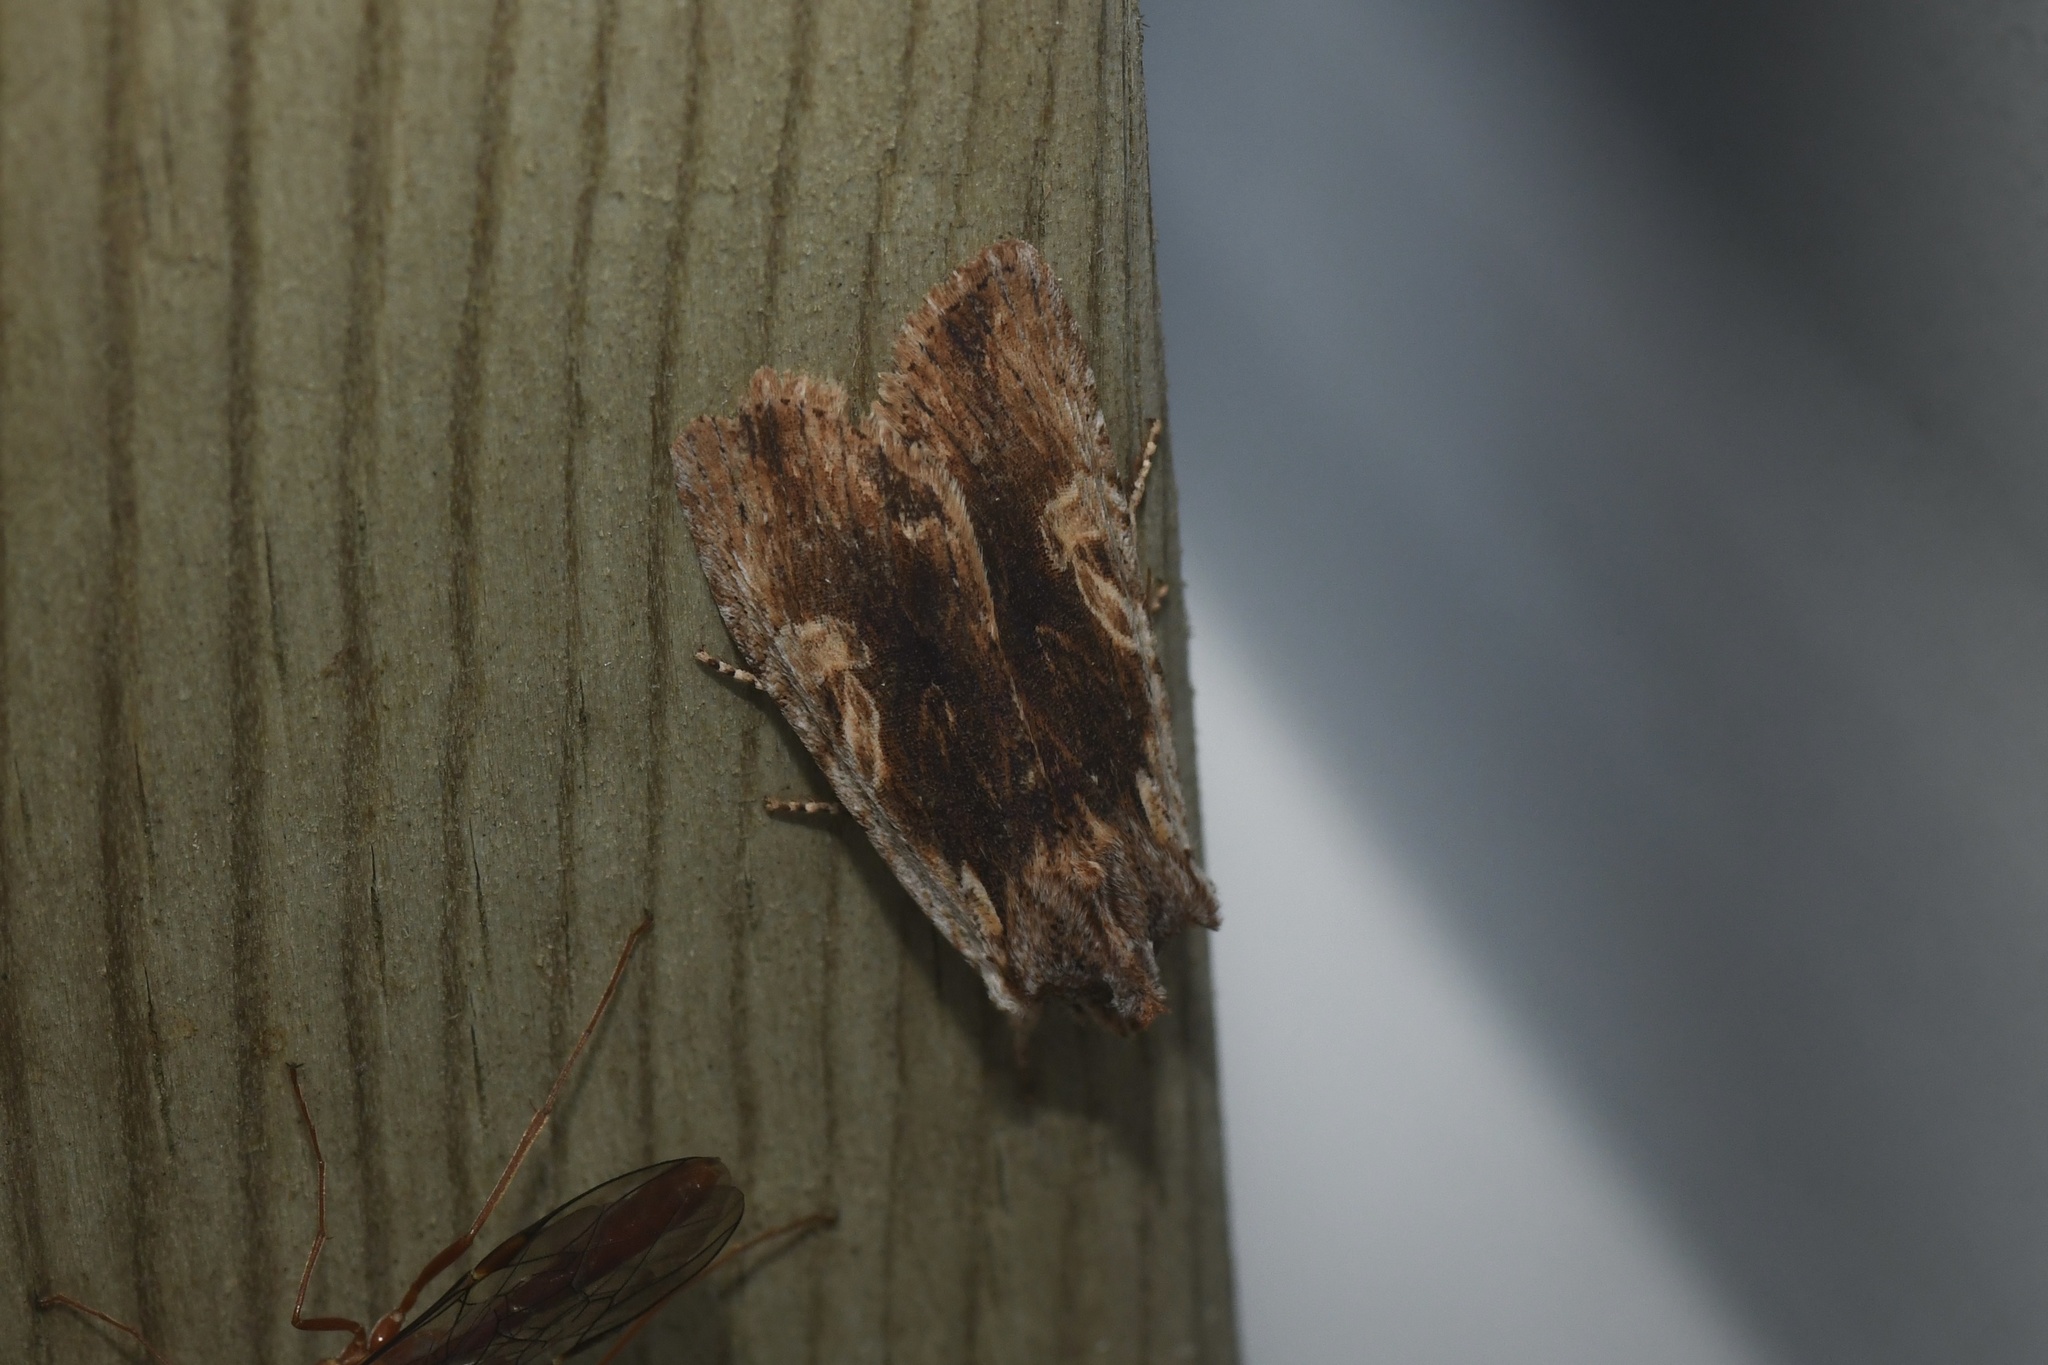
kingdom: Animalia
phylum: Arthropoda
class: Insecta
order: Lepidoptera
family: Noctuidae
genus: Lithophane
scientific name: Lithophane petulca
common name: Wanton pinion
